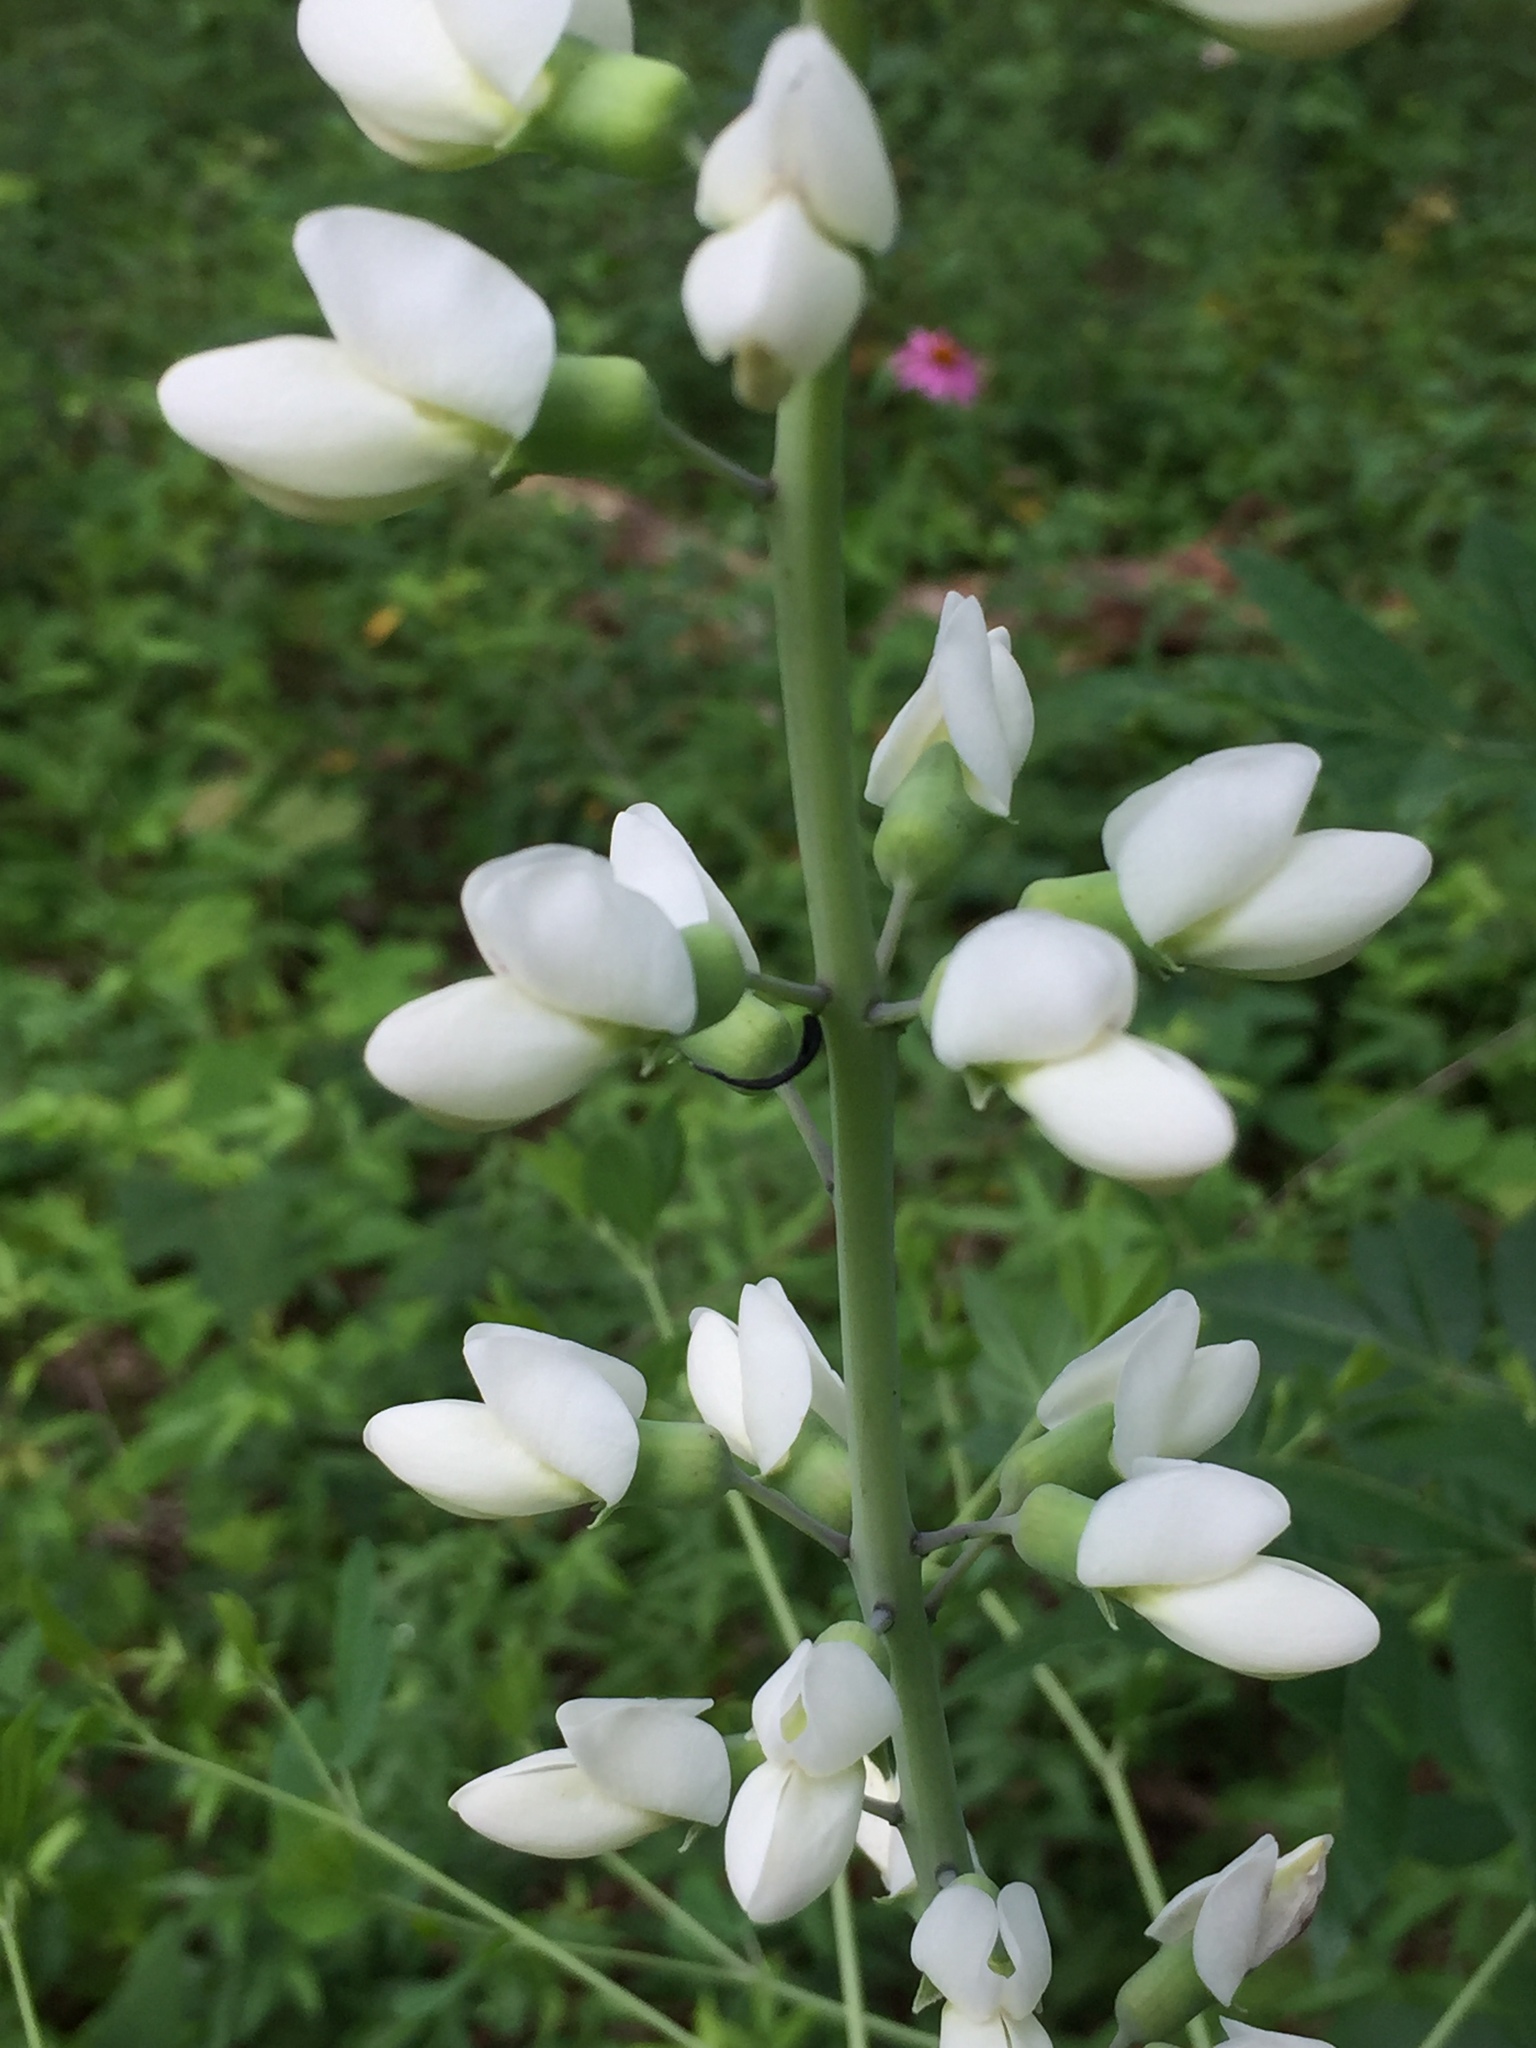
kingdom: Plantae
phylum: Tracheophyta
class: Magnoliopsida
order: Fabales
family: Fabaceae
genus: Baptisia
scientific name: Baptisia alba
